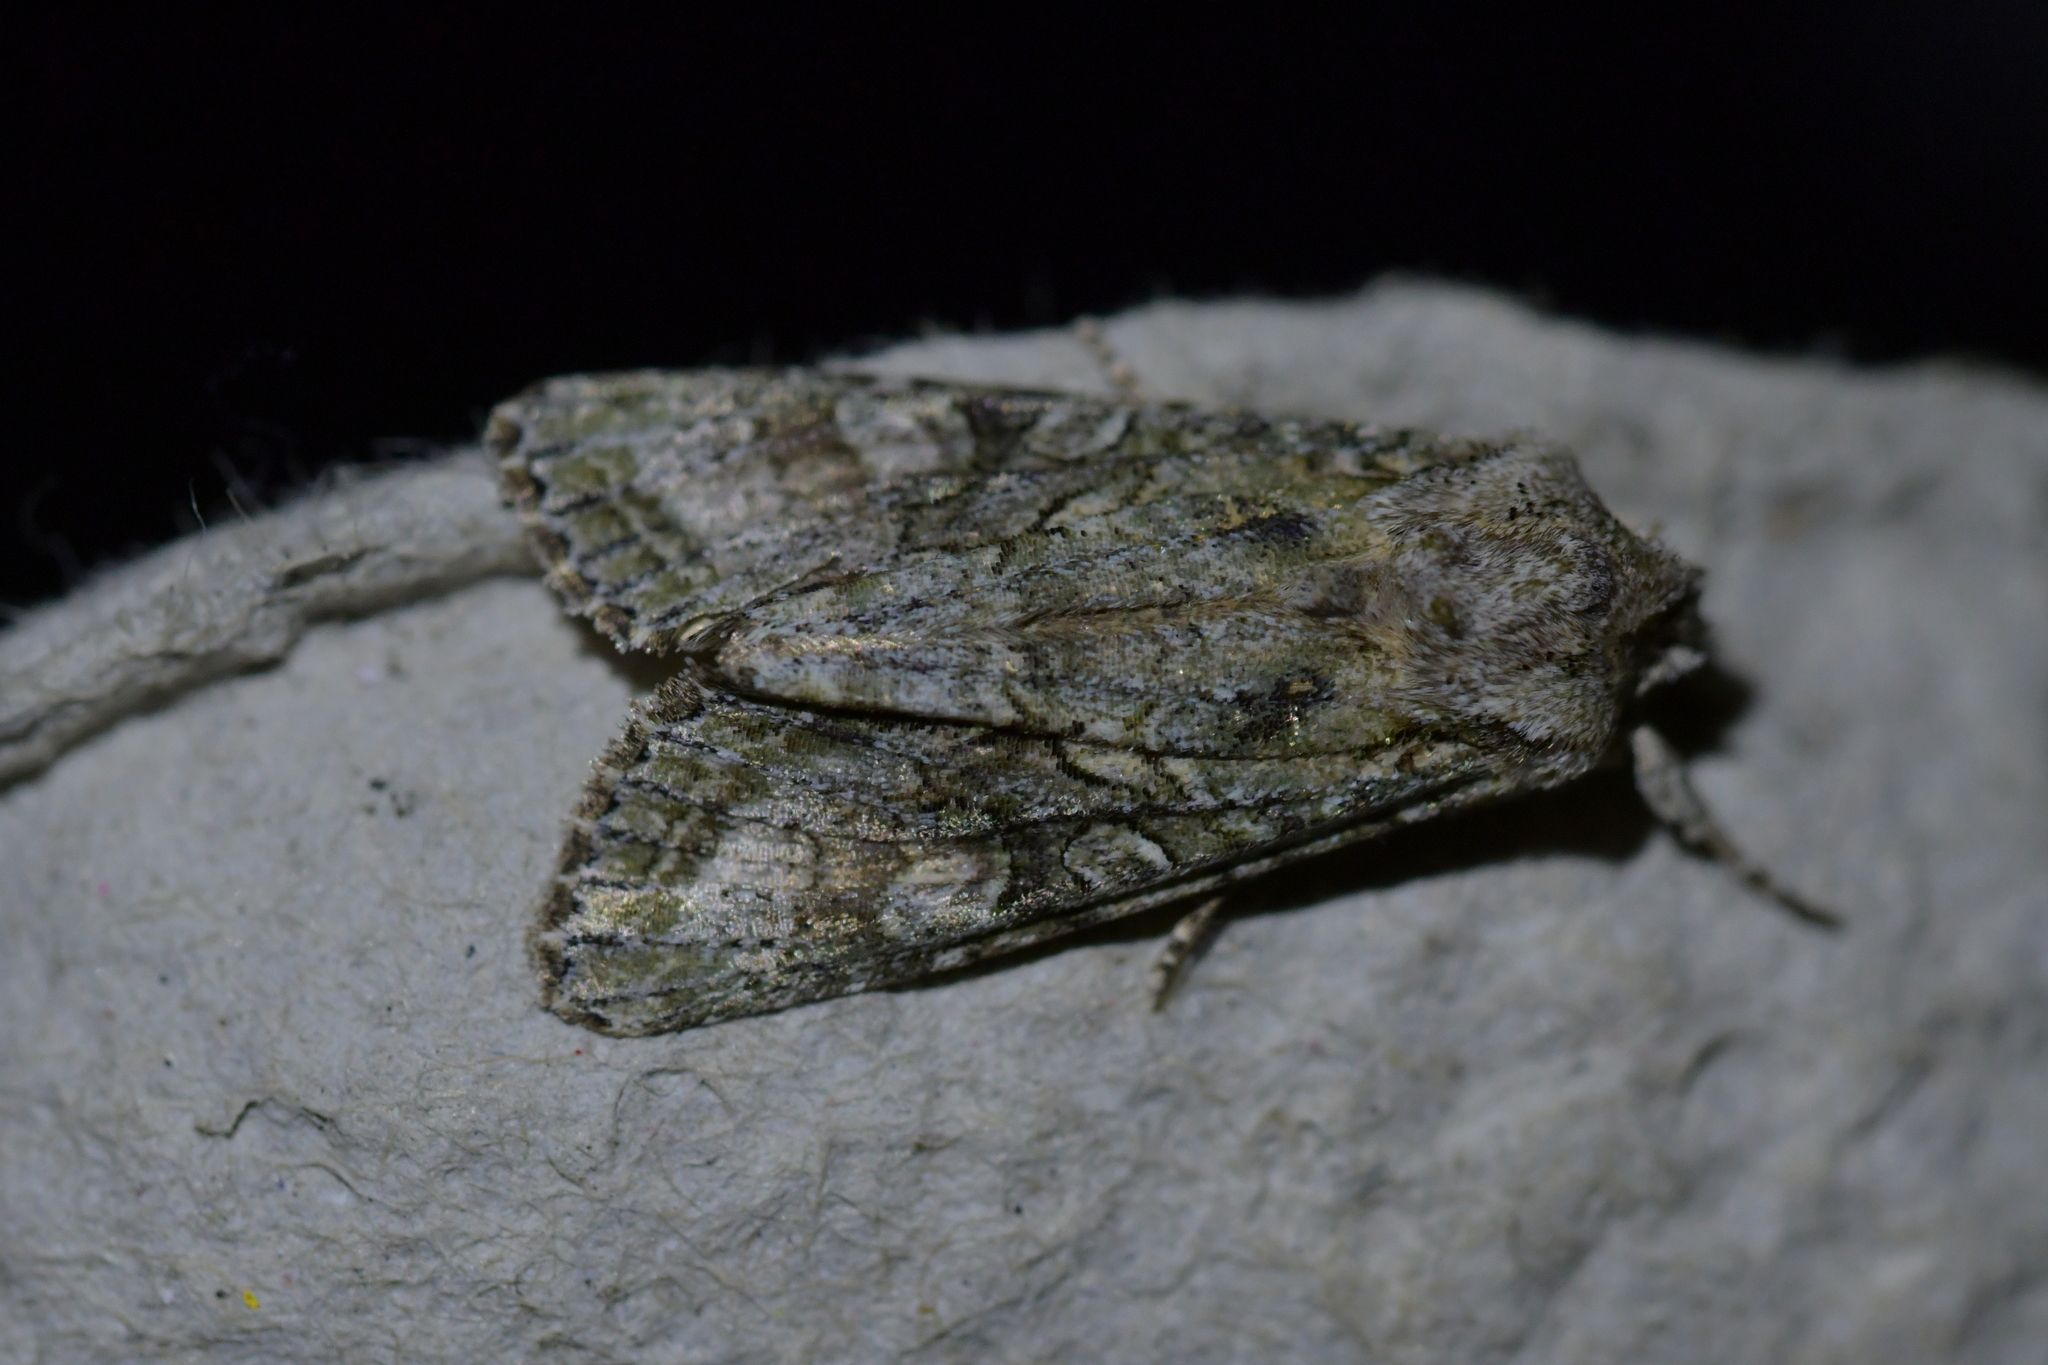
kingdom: Animalia
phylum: Arthropoda
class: Insecta
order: Lepidoptera
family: Noctuidae
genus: Ichneutica
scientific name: Ichneutica mutans
